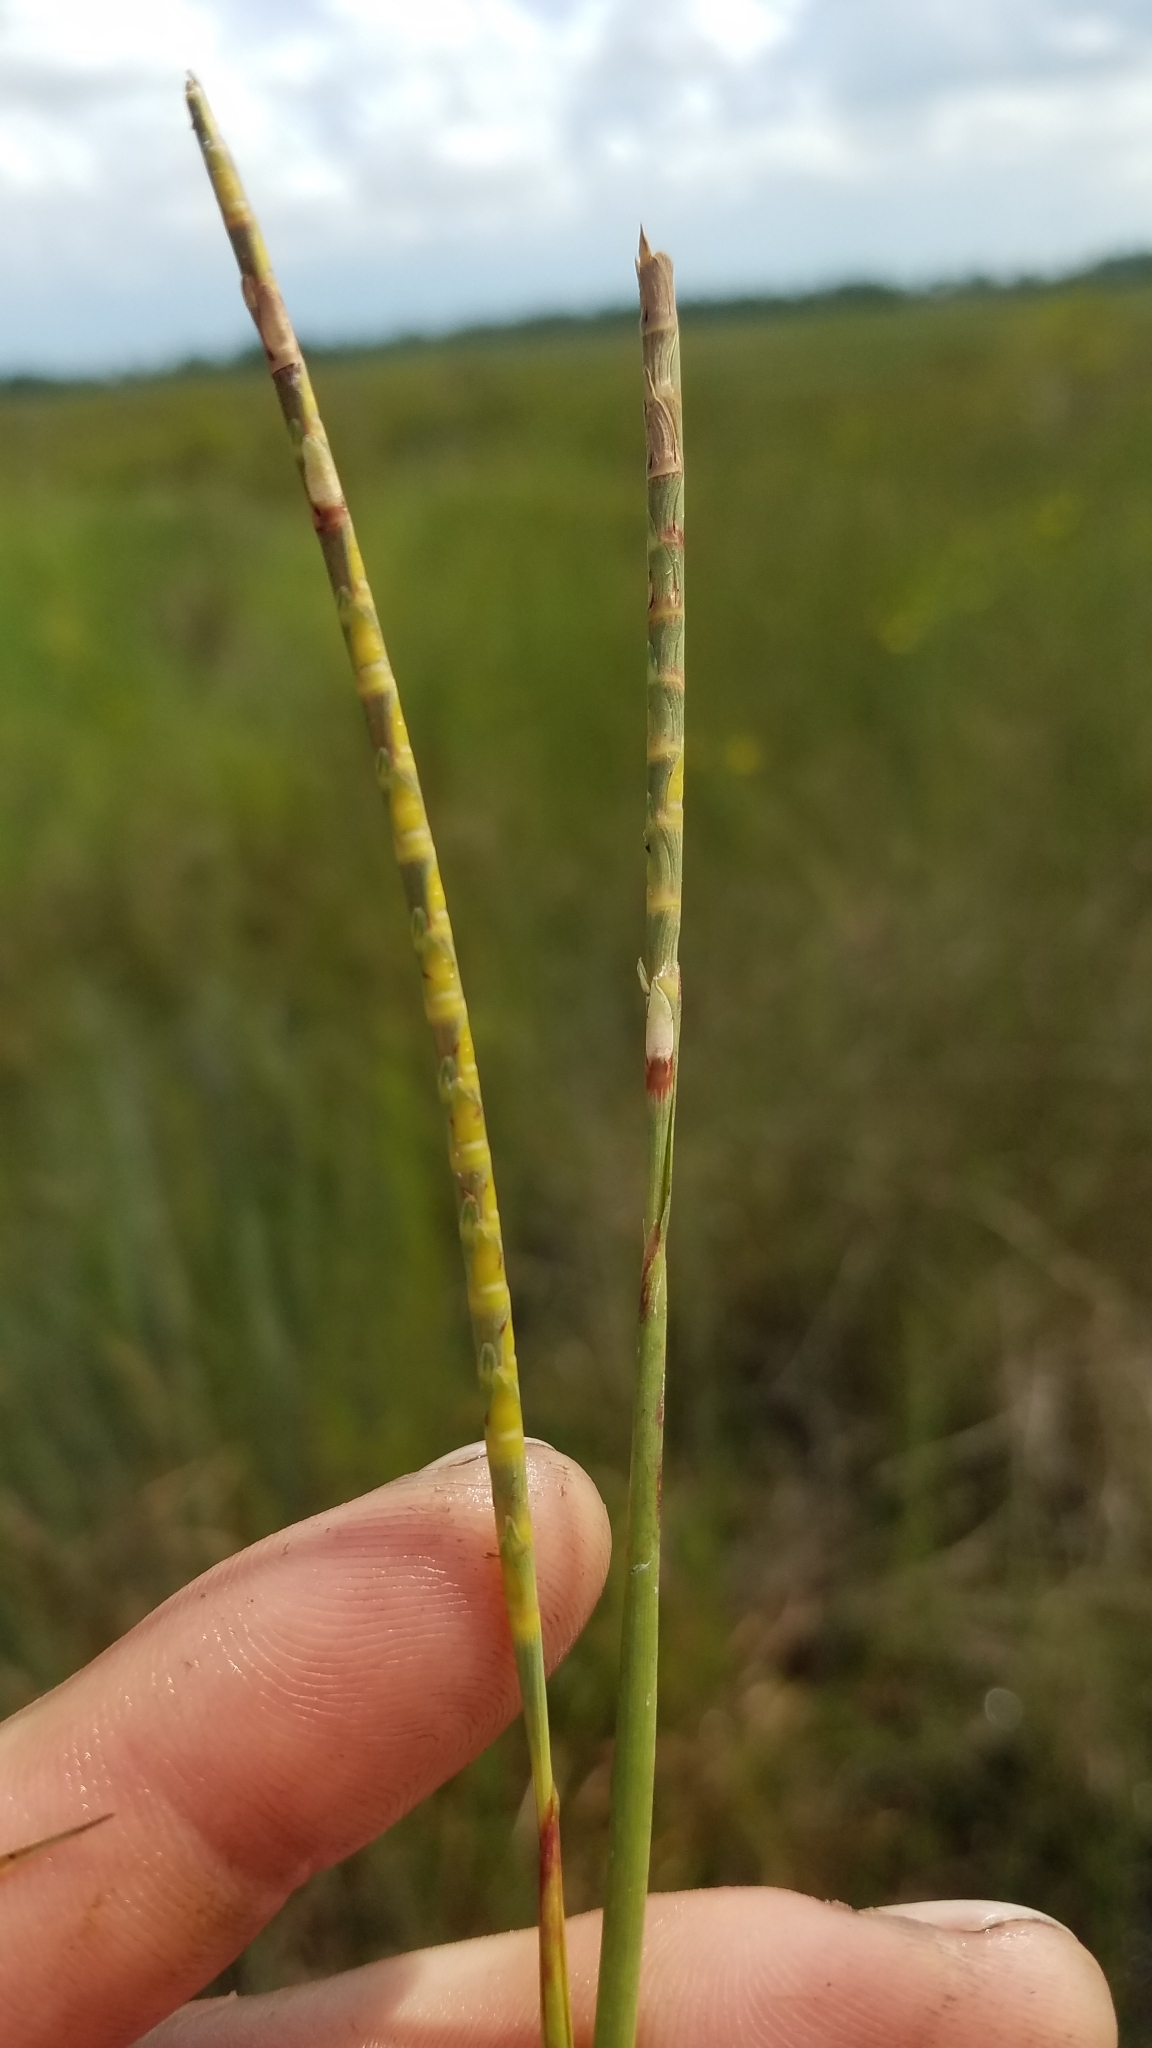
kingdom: Plantae
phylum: Tracheophyta
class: Liliopsida
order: Poales
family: Poaceae
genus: Rottboellia
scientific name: Rottboellia tuberculosa
